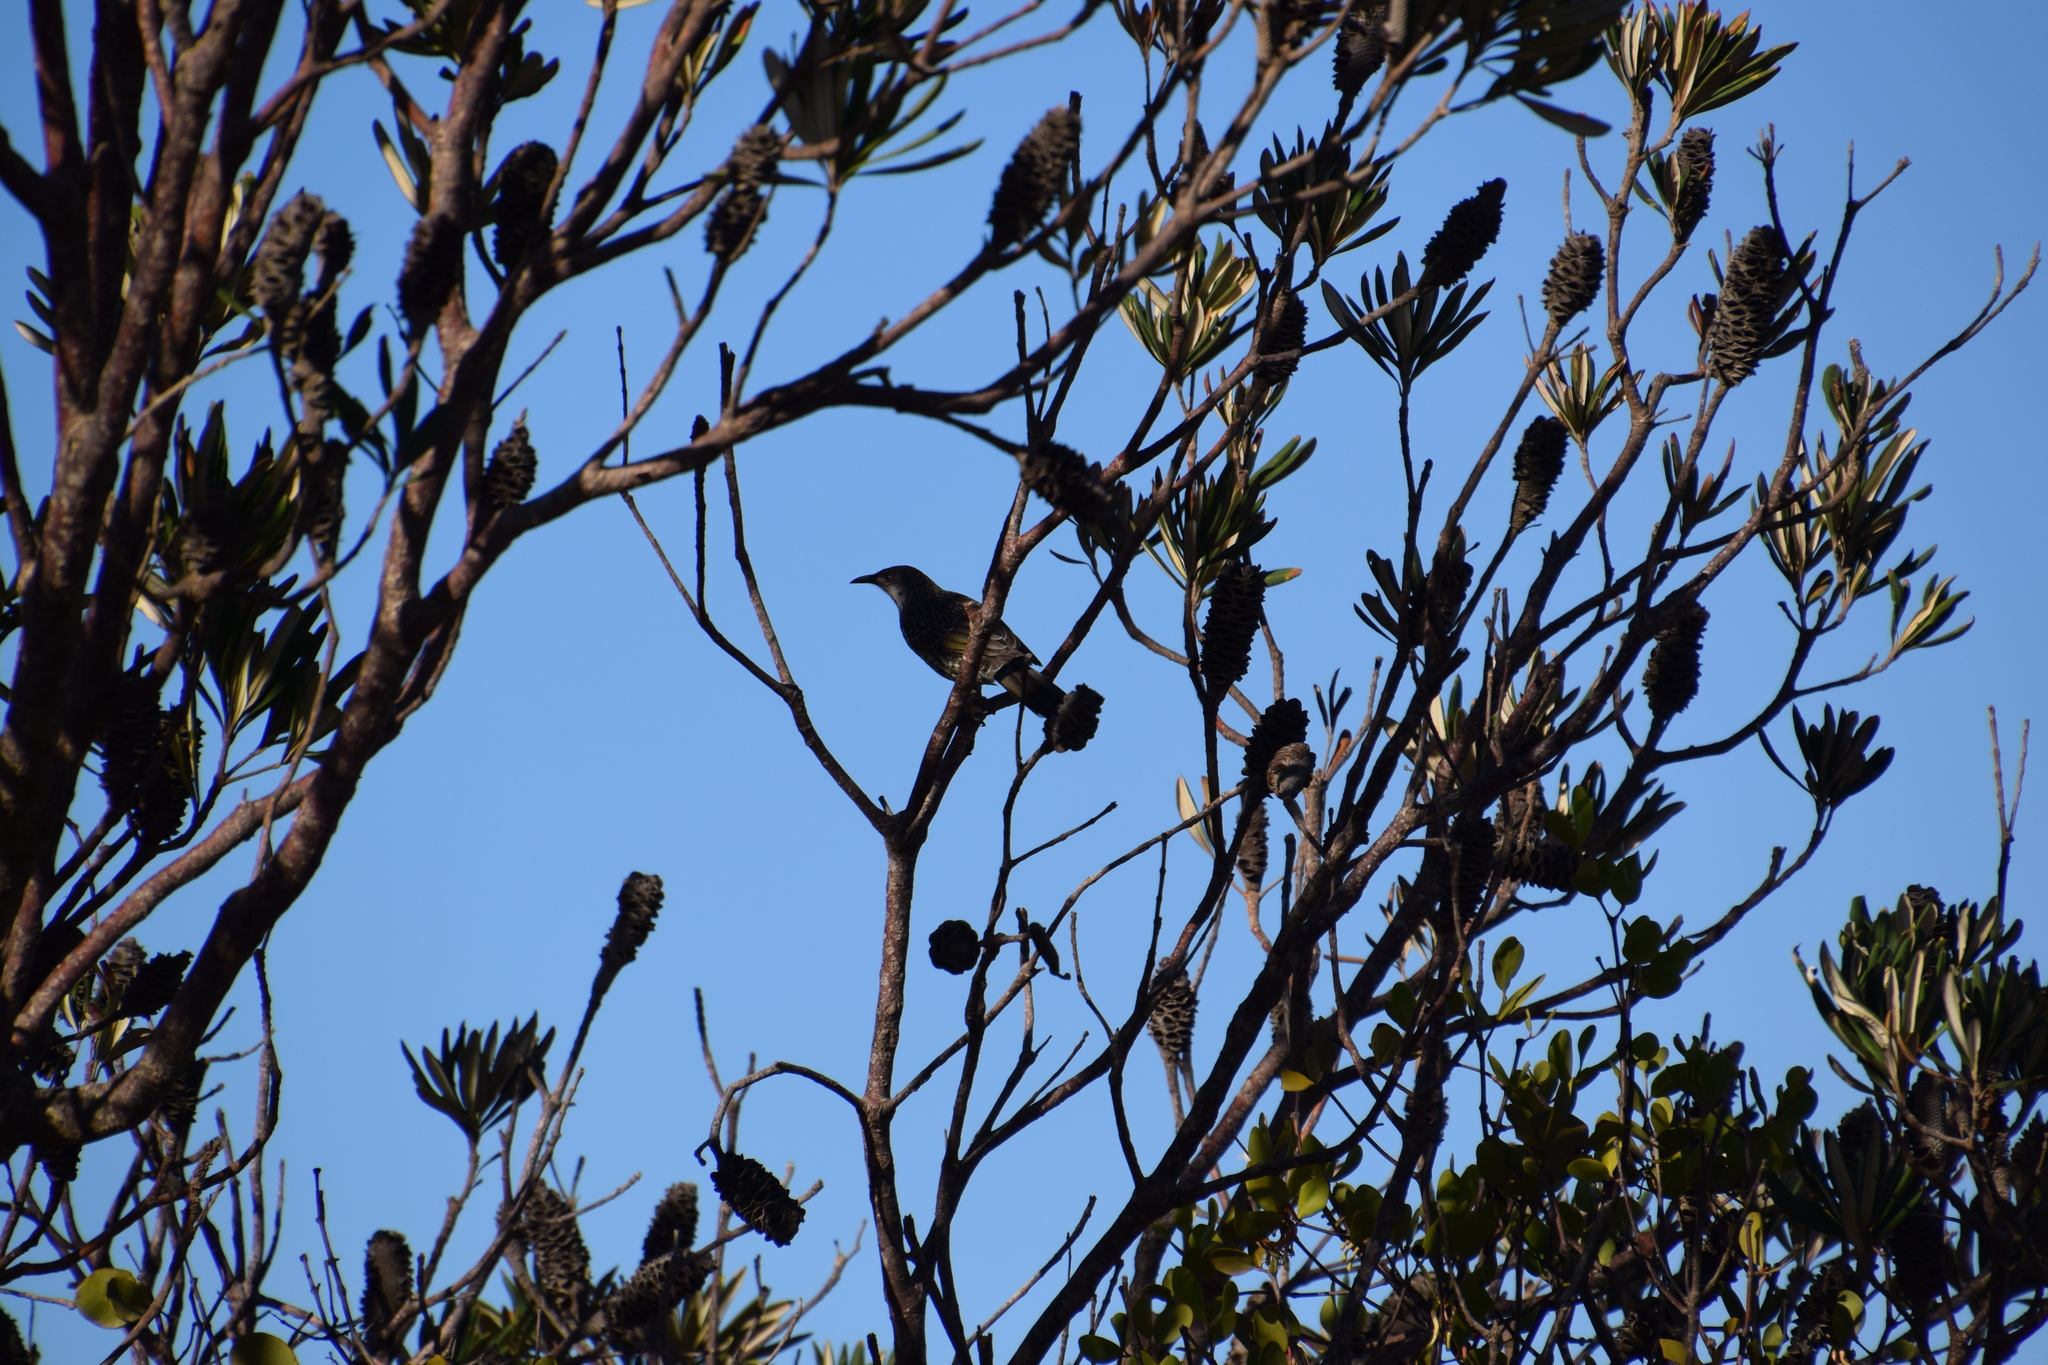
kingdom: Animalia
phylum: Chordata
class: Aves
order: Passeriformes
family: Meliphagidae
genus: Anthochaera
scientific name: Anthochaera chrysoptera
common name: Little wattlebird
